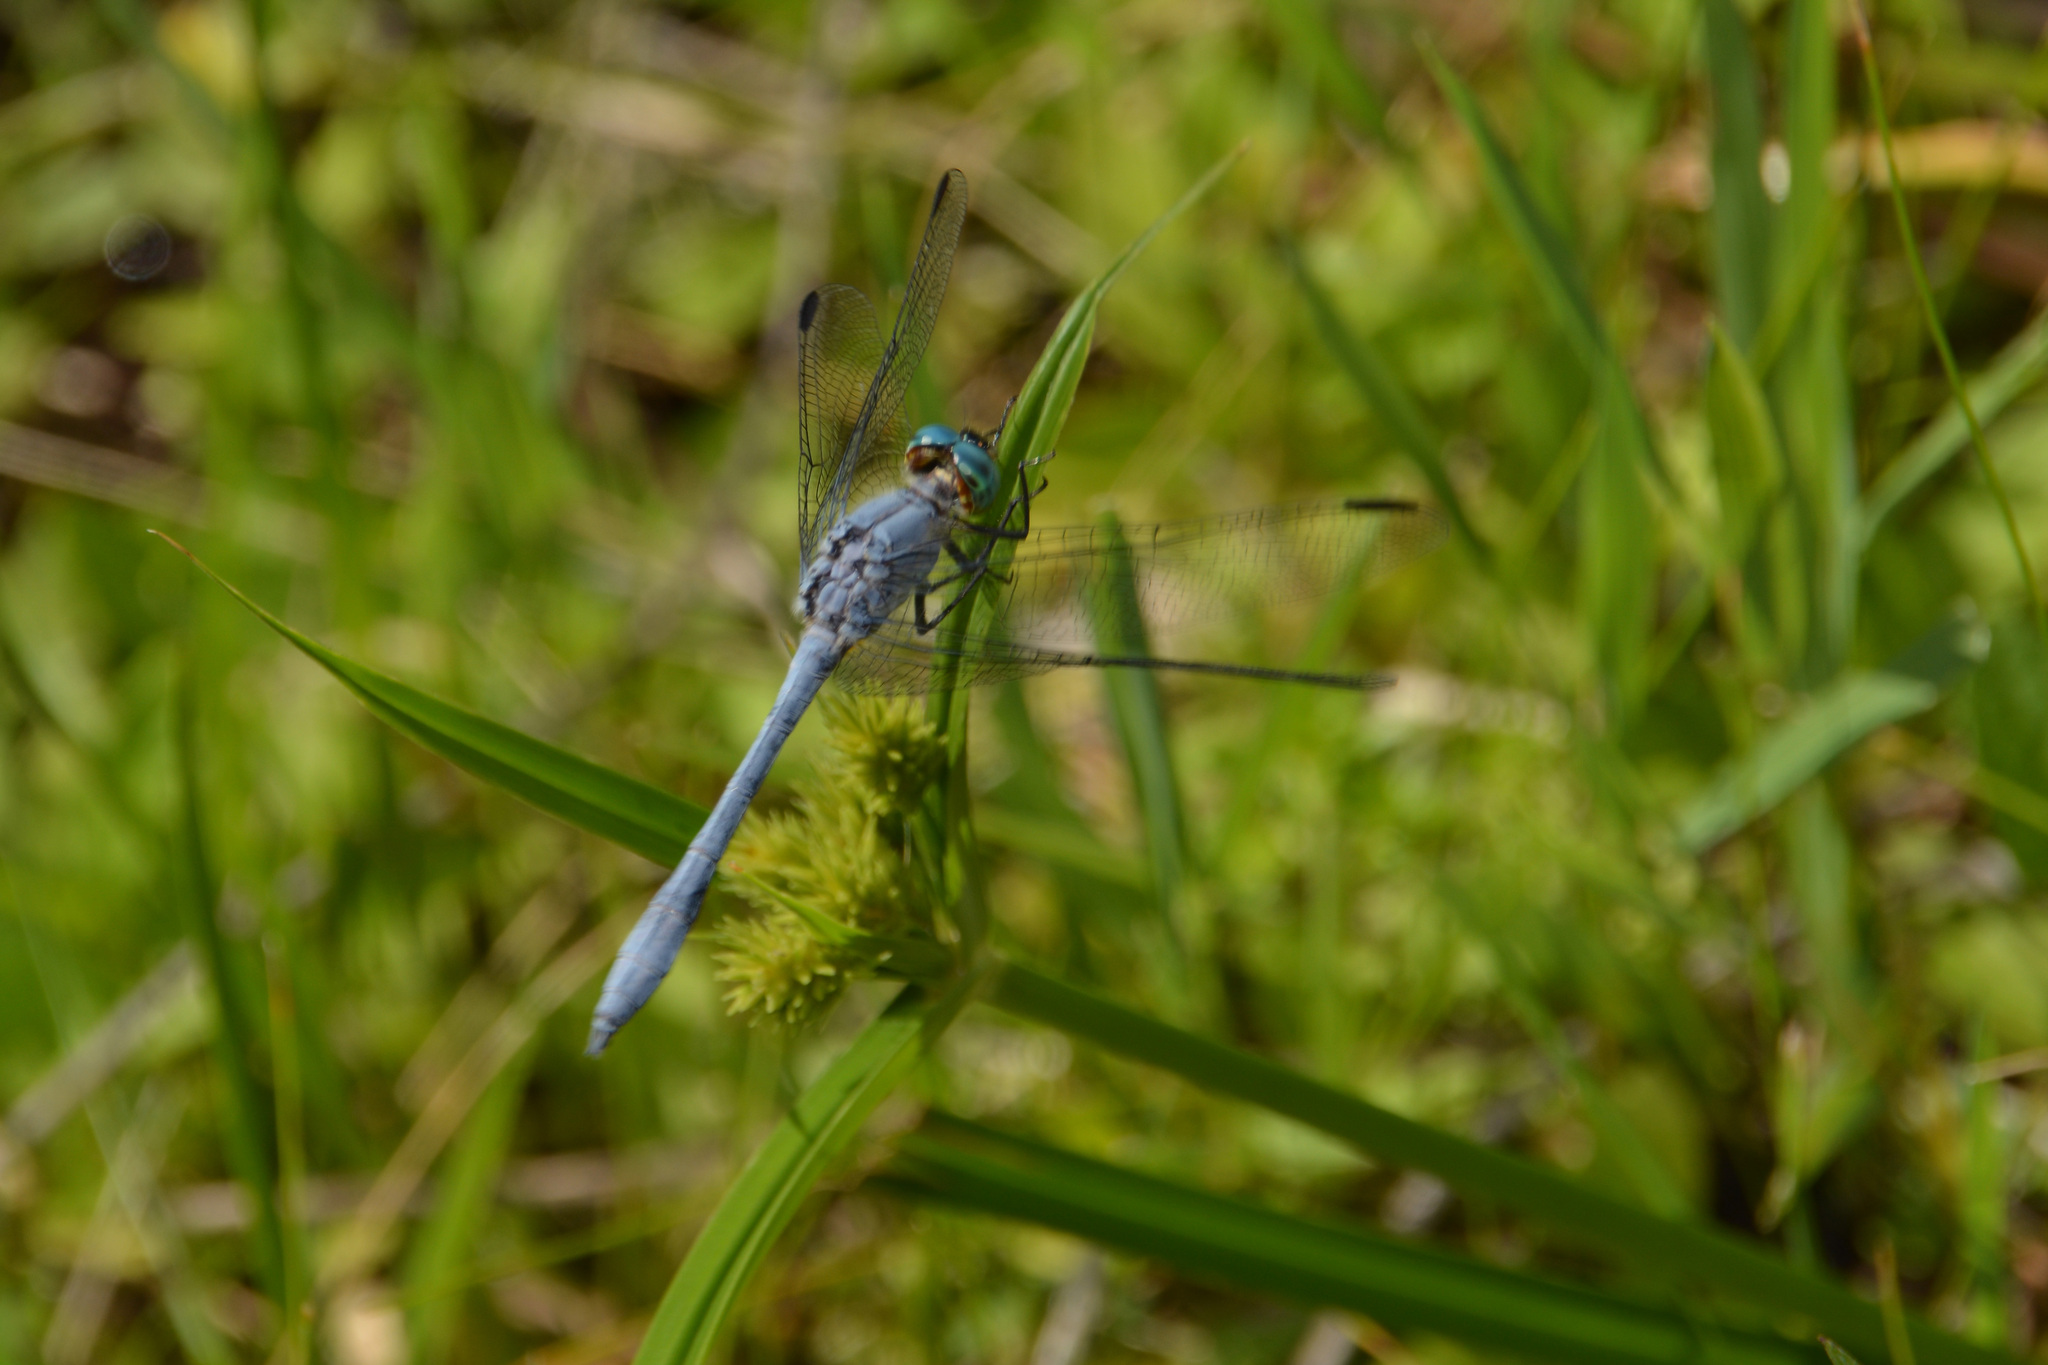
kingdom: Animalia
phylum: Arthropoda
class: Insecta
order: Odonata
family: Libellulidae
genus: Micrathyria
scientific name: Micrathyria ungulata
